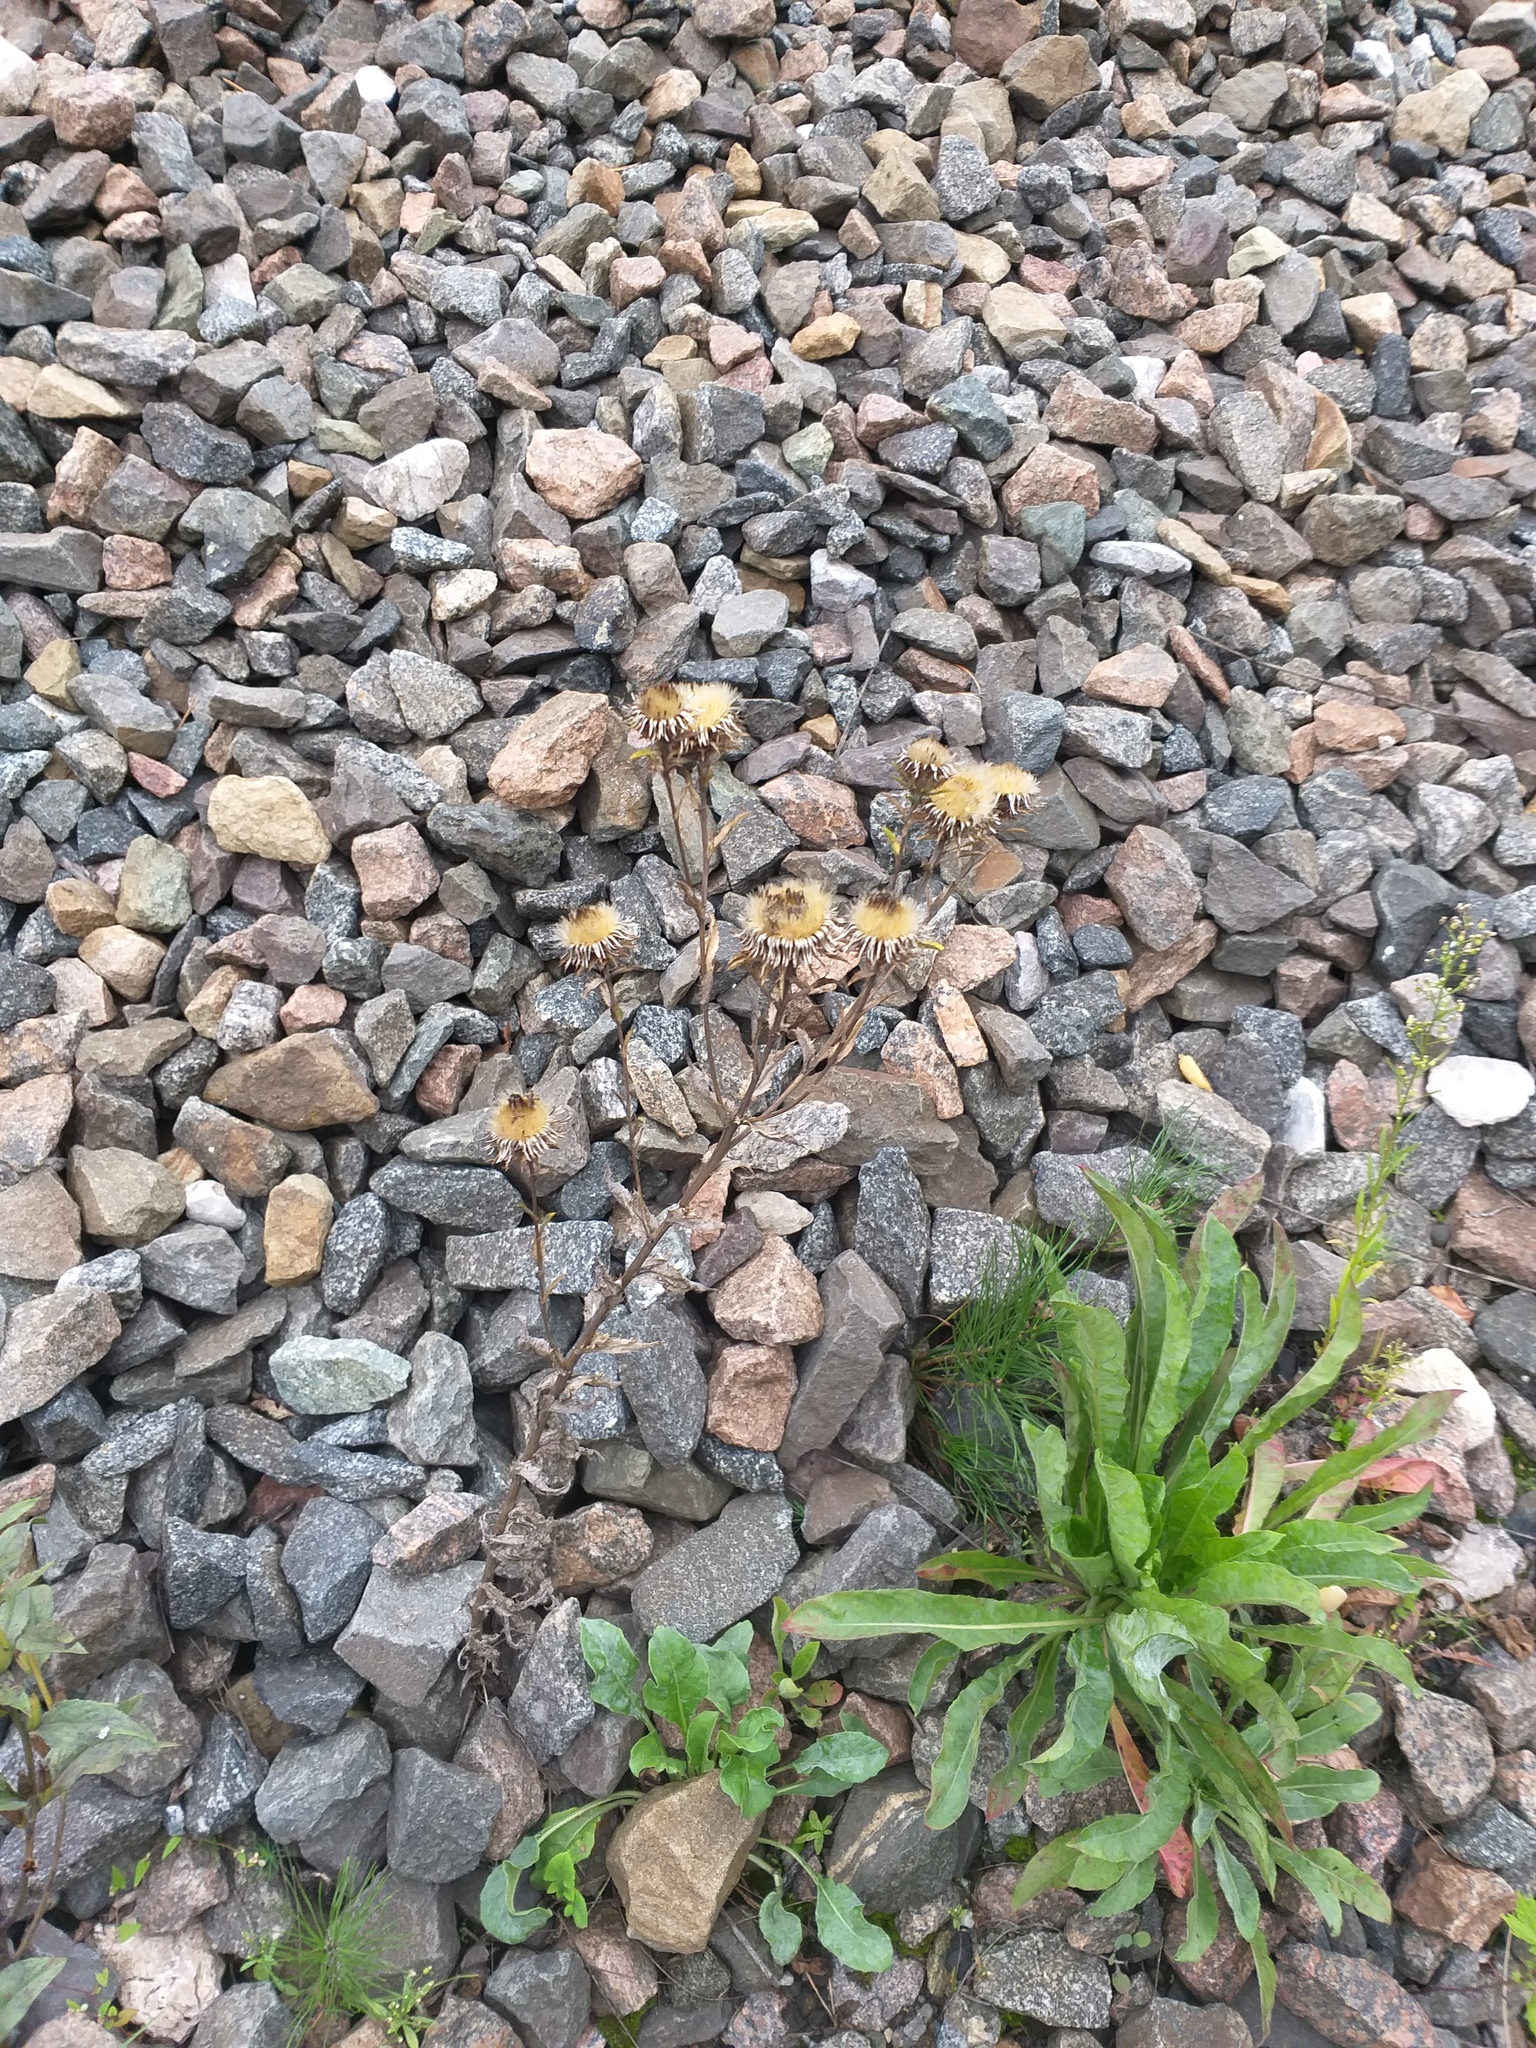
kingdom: Plantae
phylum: Tracheophyta
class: Magnoliopsida
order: Asterales
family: Asteraceae
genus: Carlina
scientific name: Carlina biebersteinii
